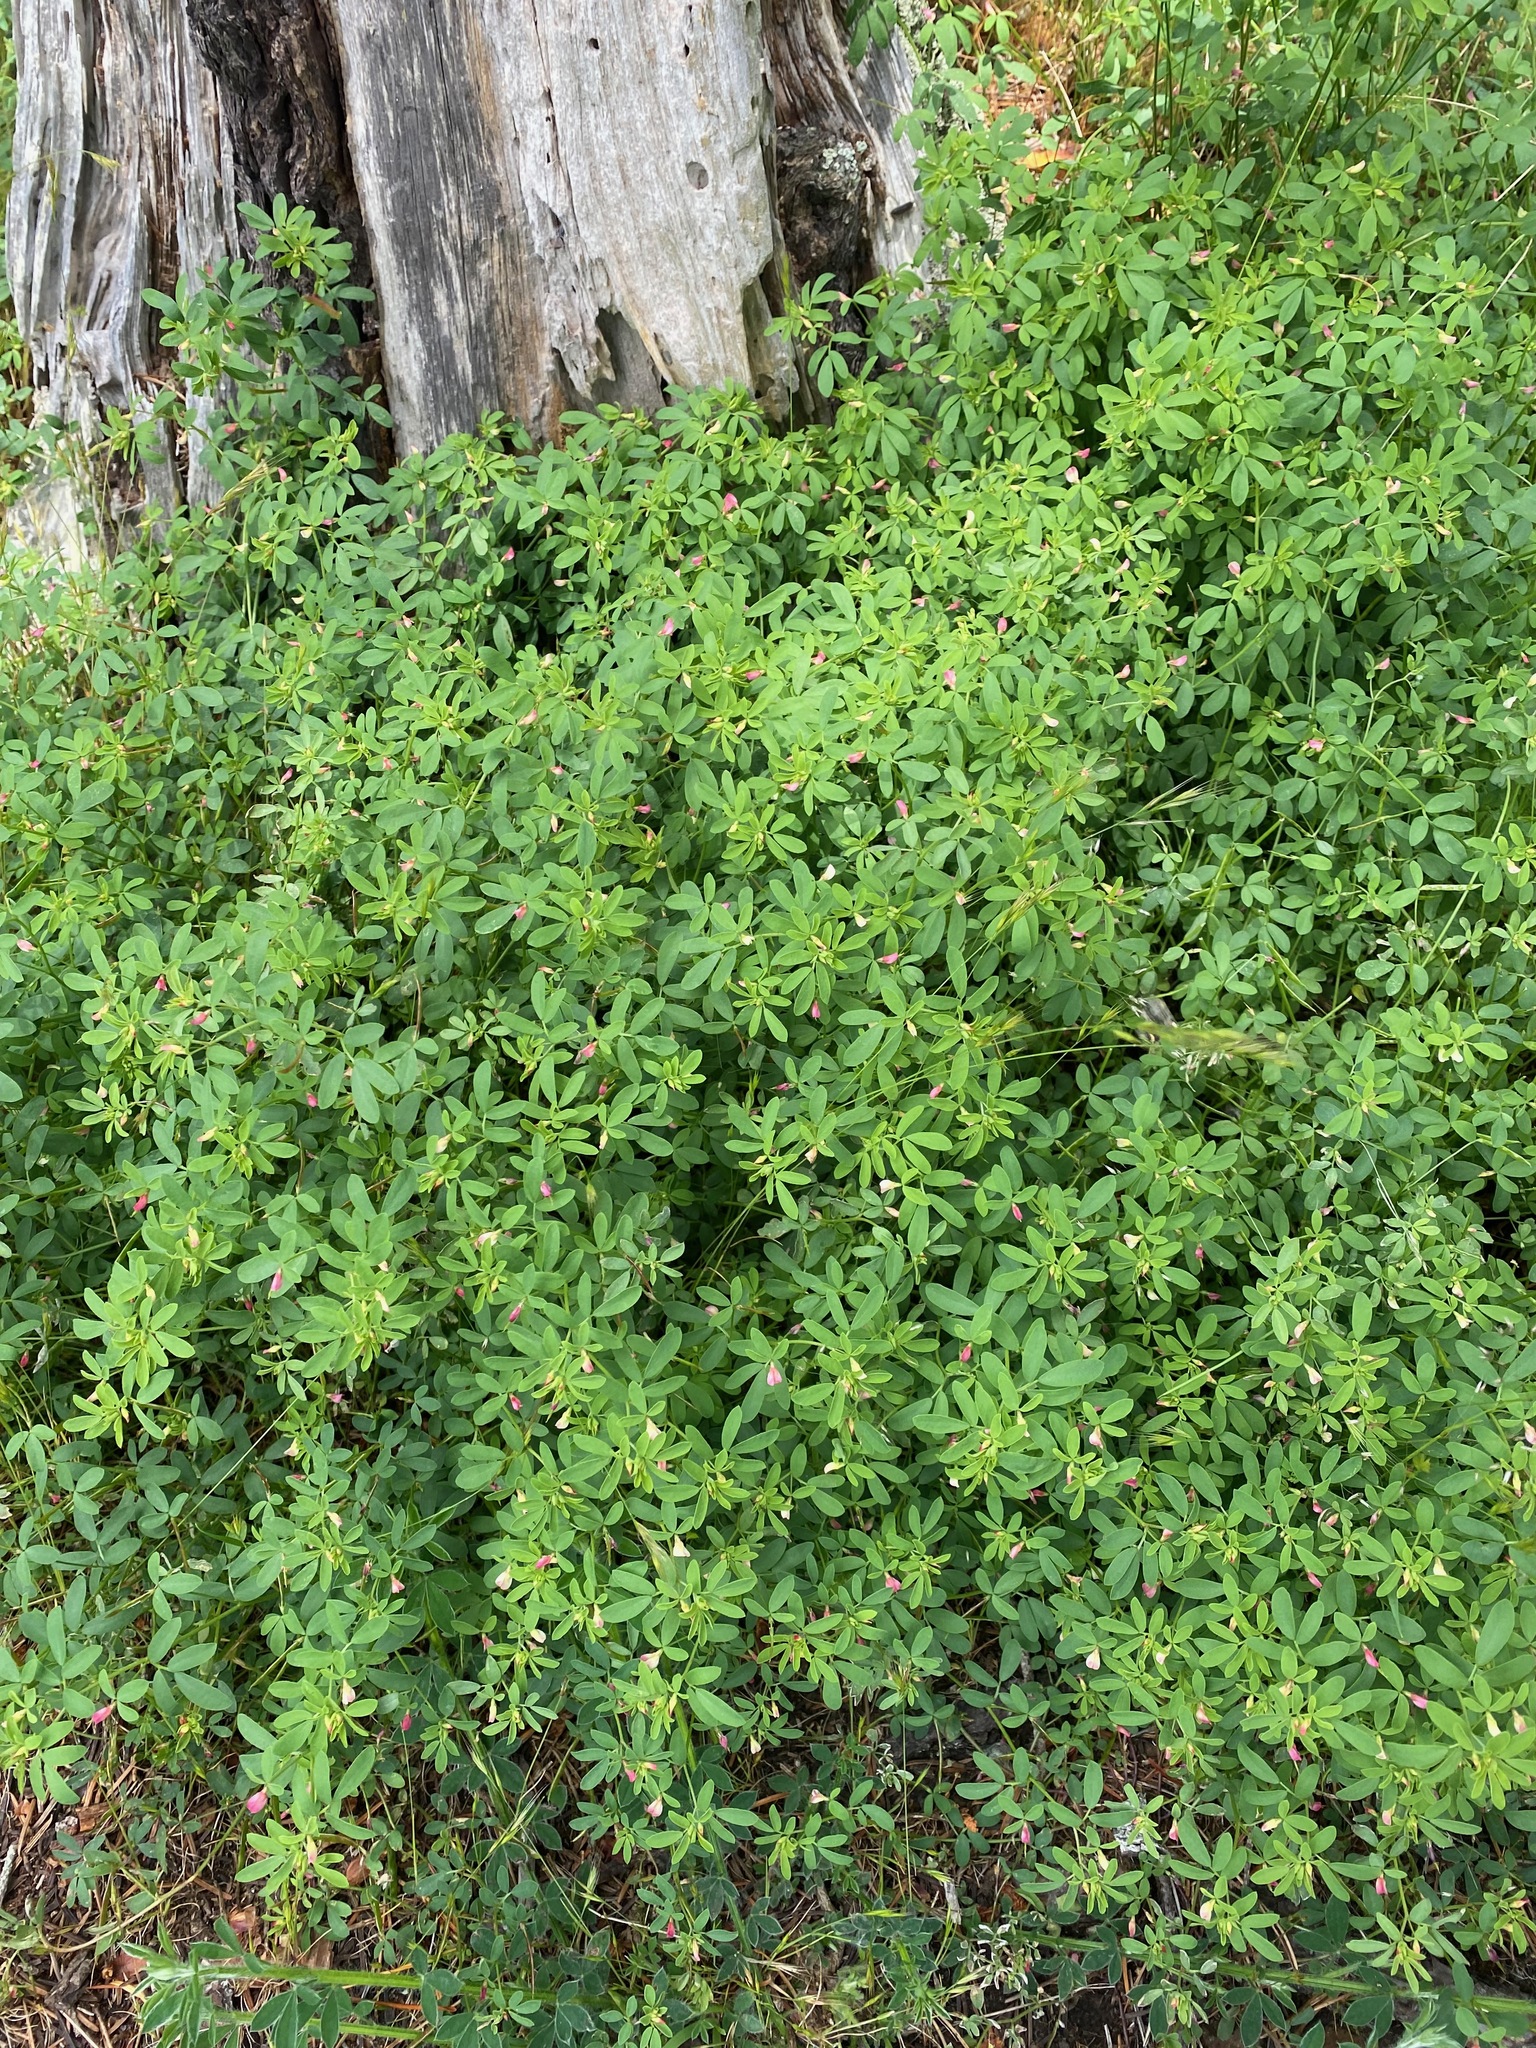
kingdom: Plantae
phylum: Tracheophyta
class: Magnoliopsida
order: Fabales
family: Fabaceae
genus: Acmispon
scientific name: Acmispon parviflorus
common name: Desert deer-vetch
